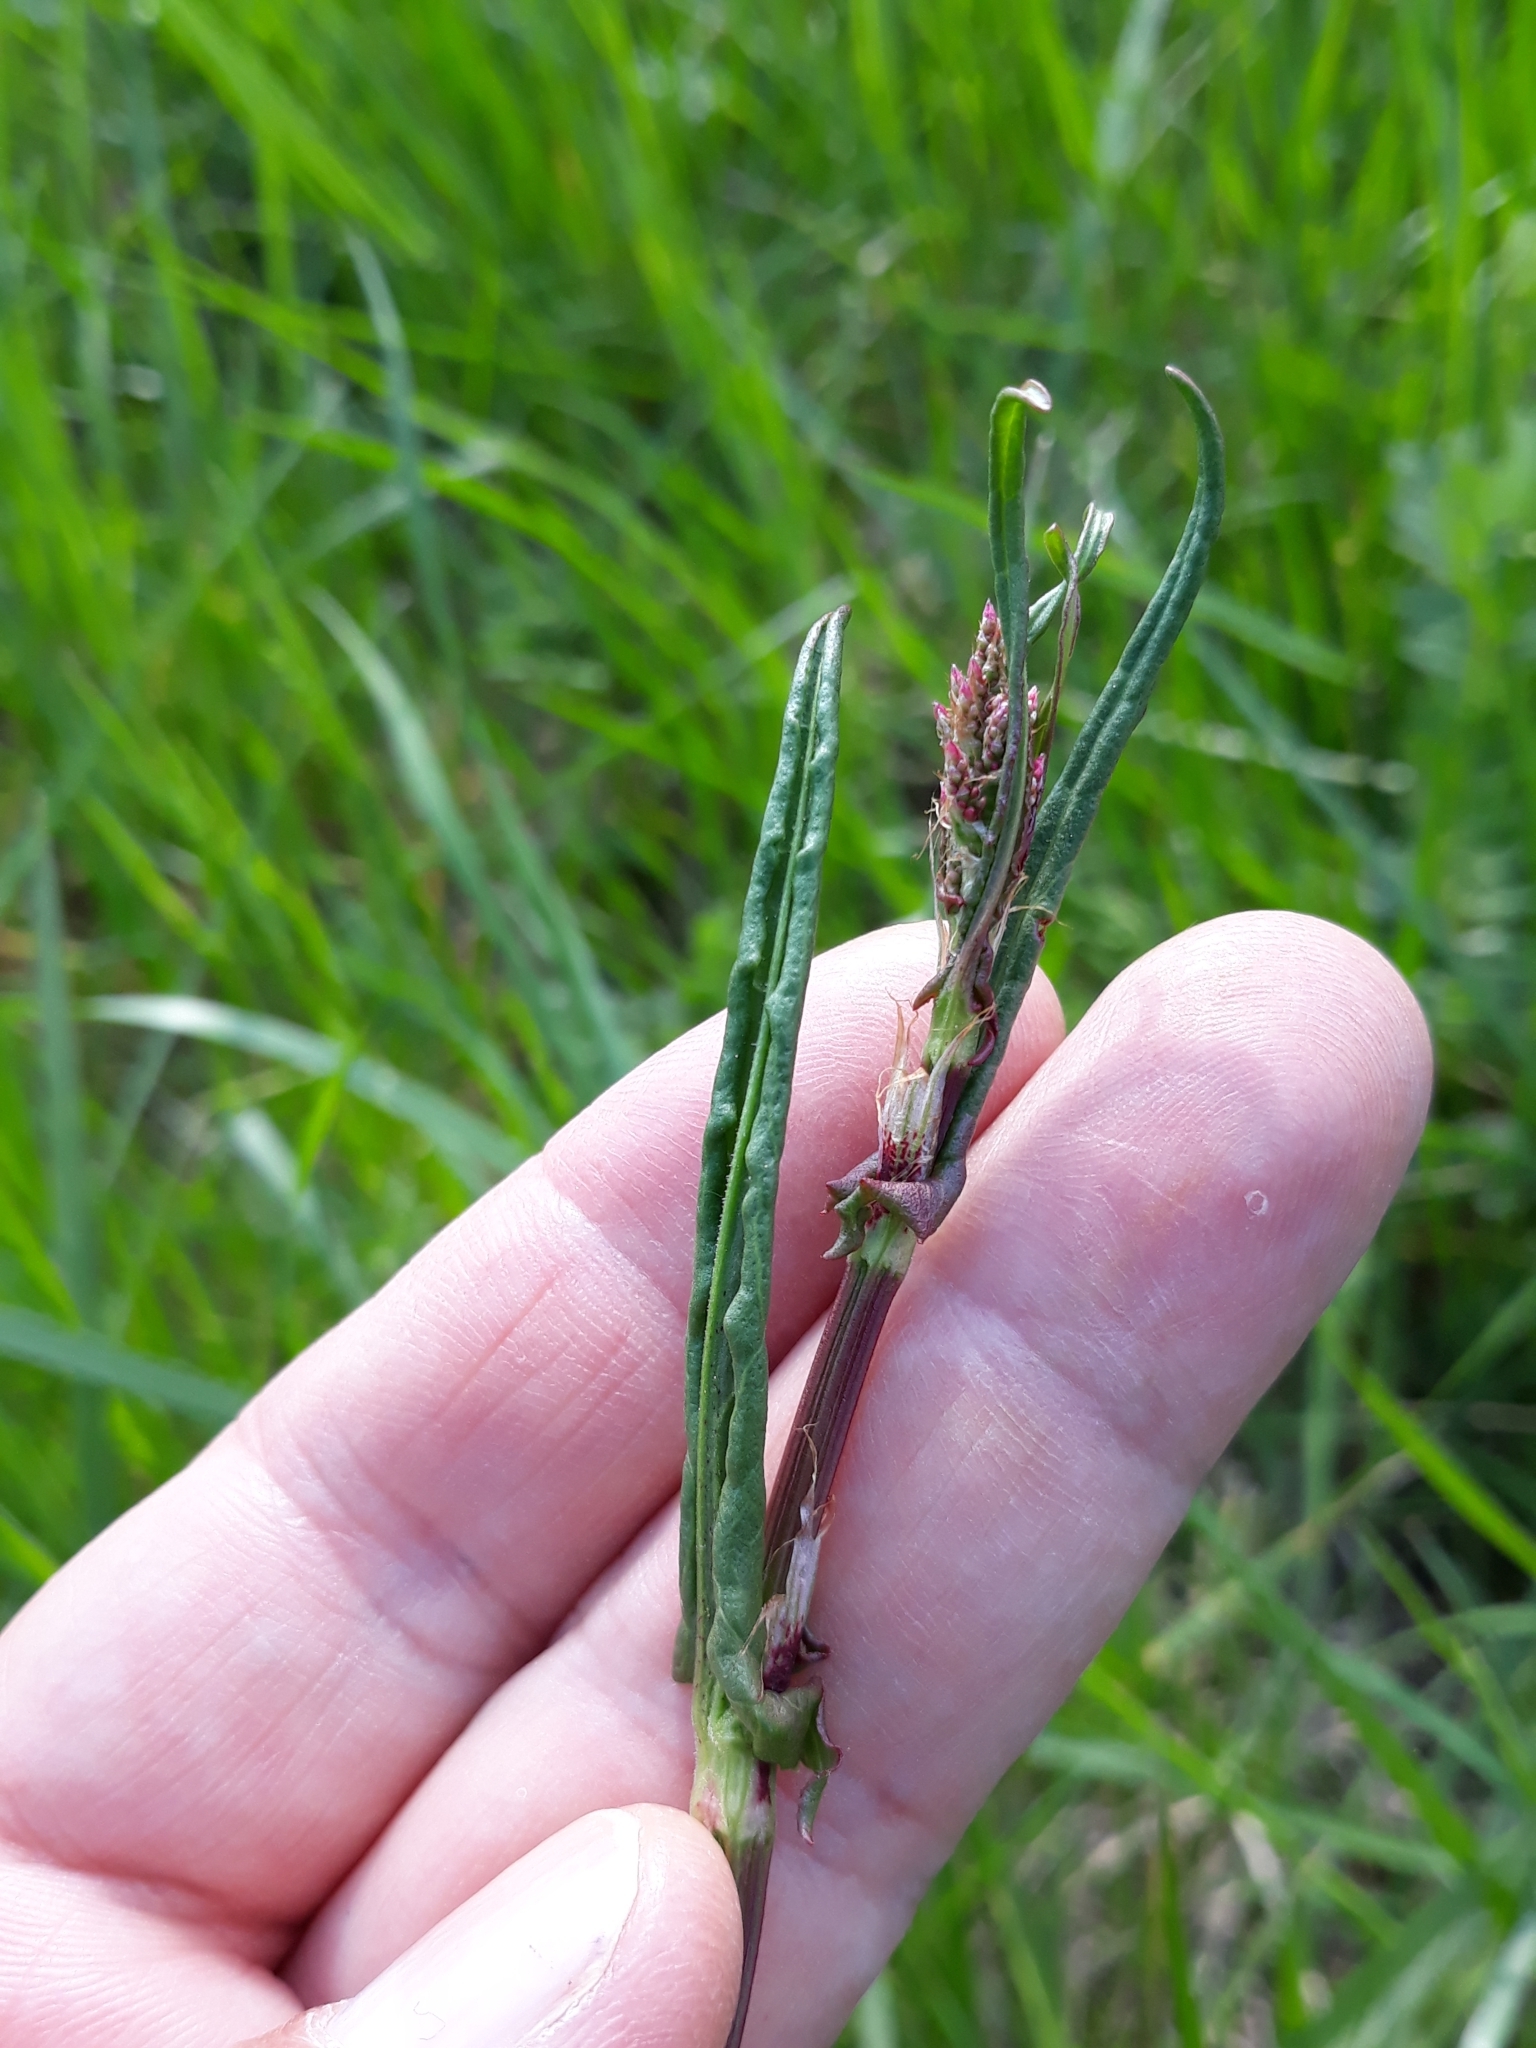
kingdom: Plantae
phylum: Tracheophyta
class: Magnoliopsida
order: Caryophyllales
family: Polygonaceae
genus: Rumex
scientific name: Rumex acetosa
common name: Garden sorrel
